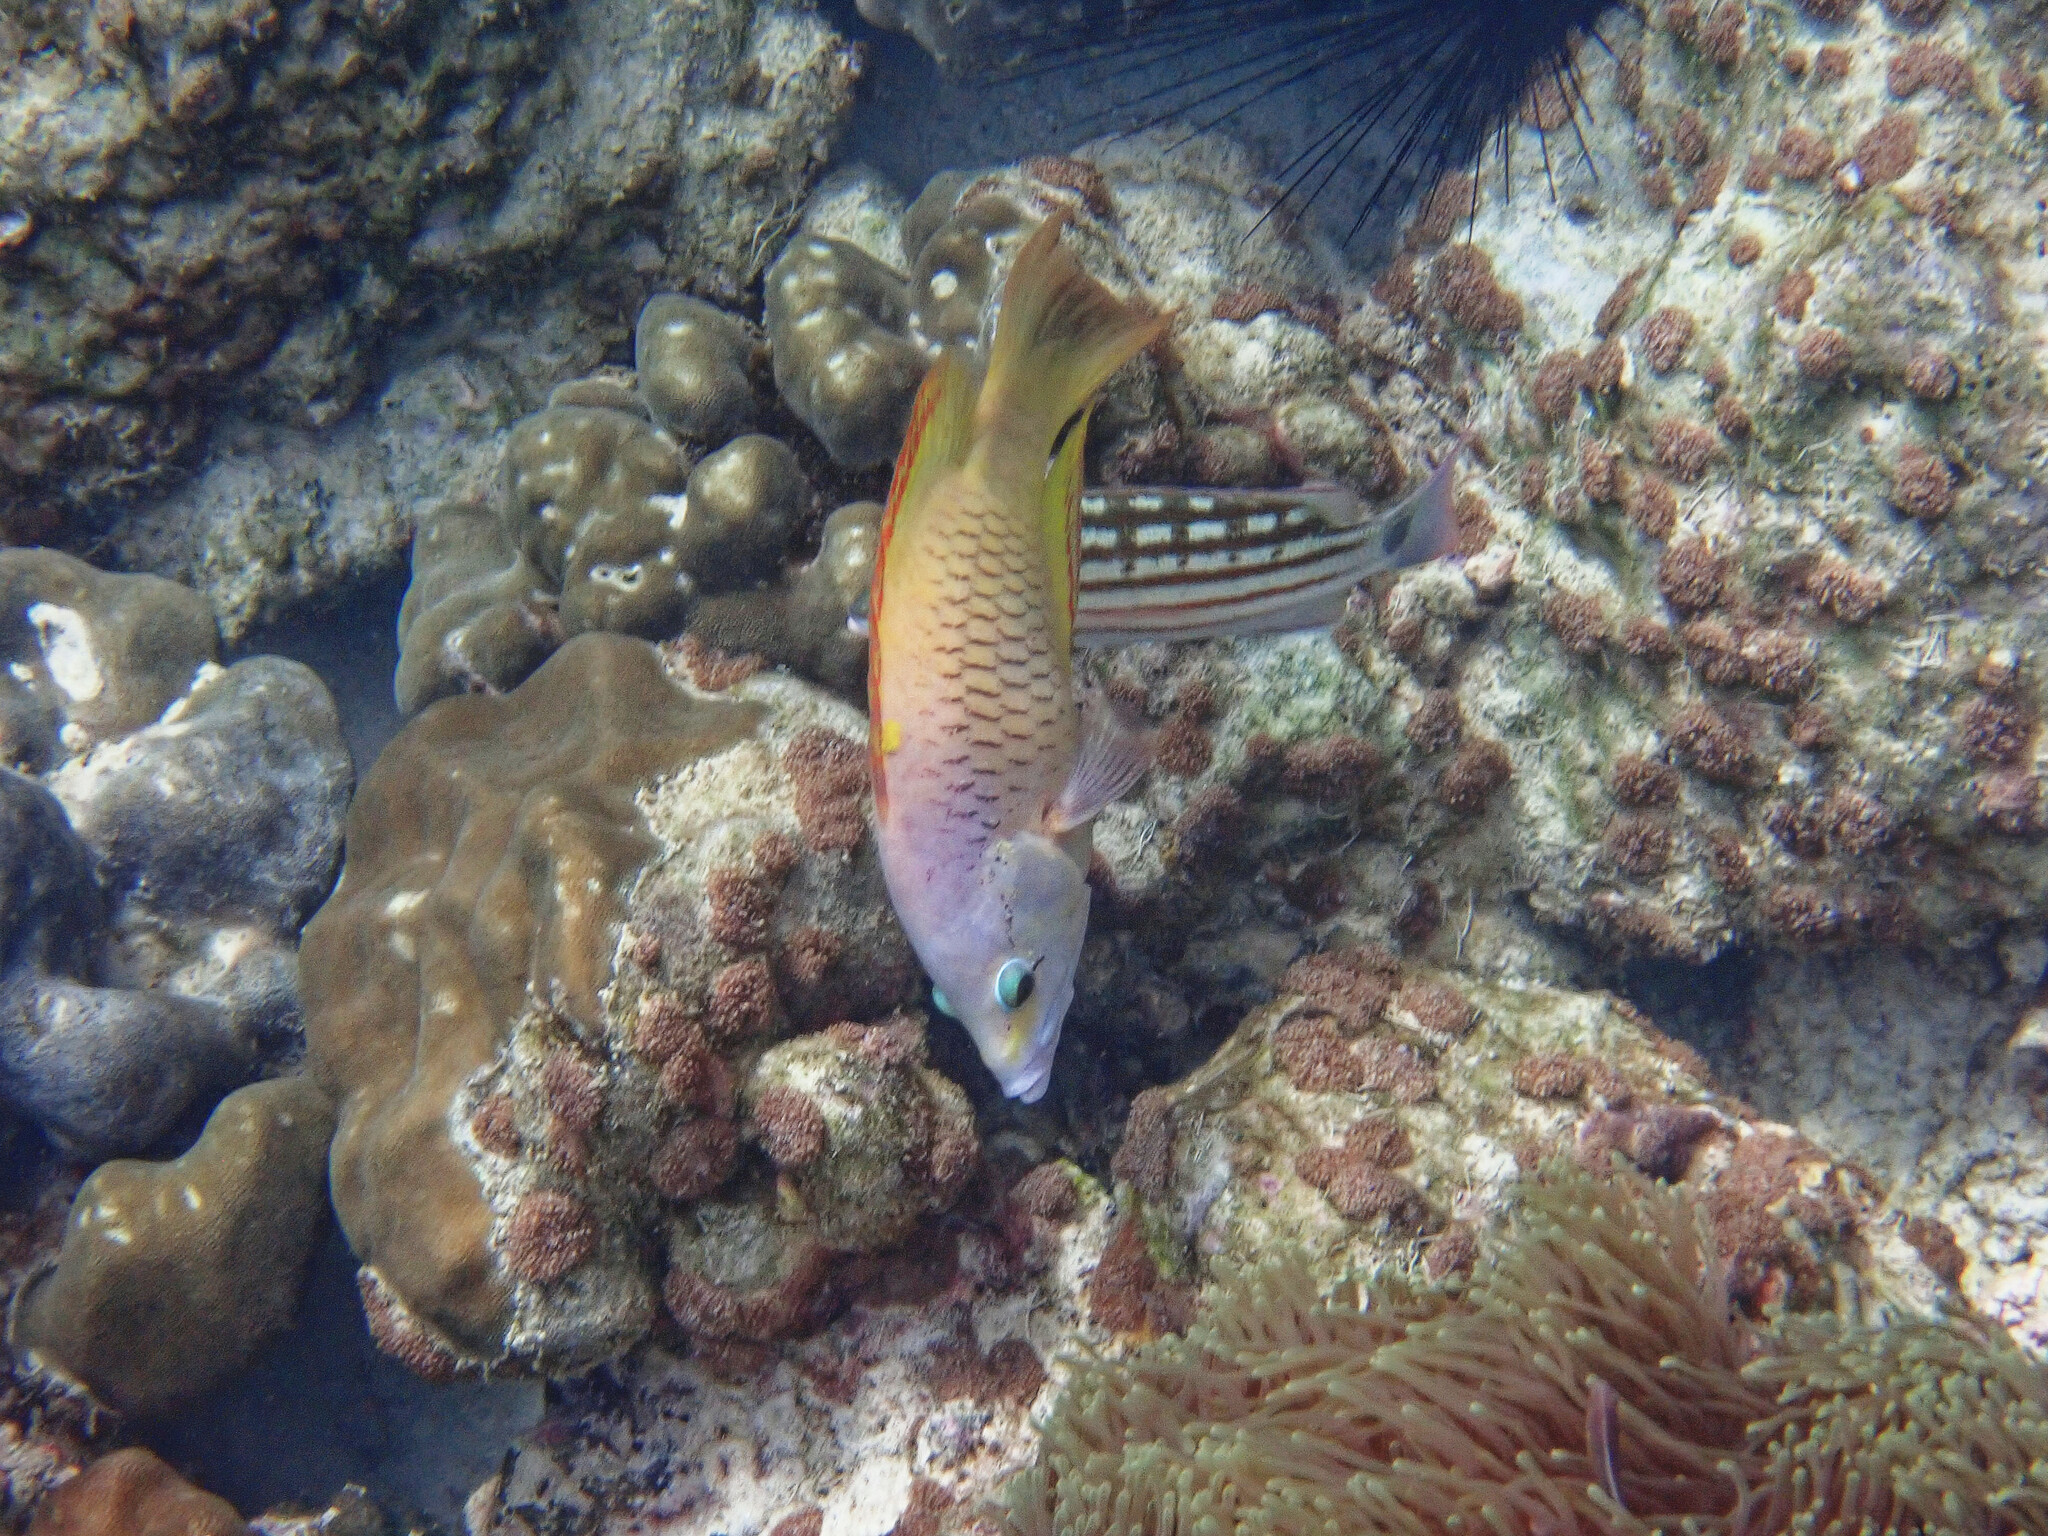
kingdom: Animalia
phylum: Chordata
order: Perciformes
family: Labridae
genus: Epibulus
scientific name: Epibulus insidiator
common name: Slingjaw wrasse
